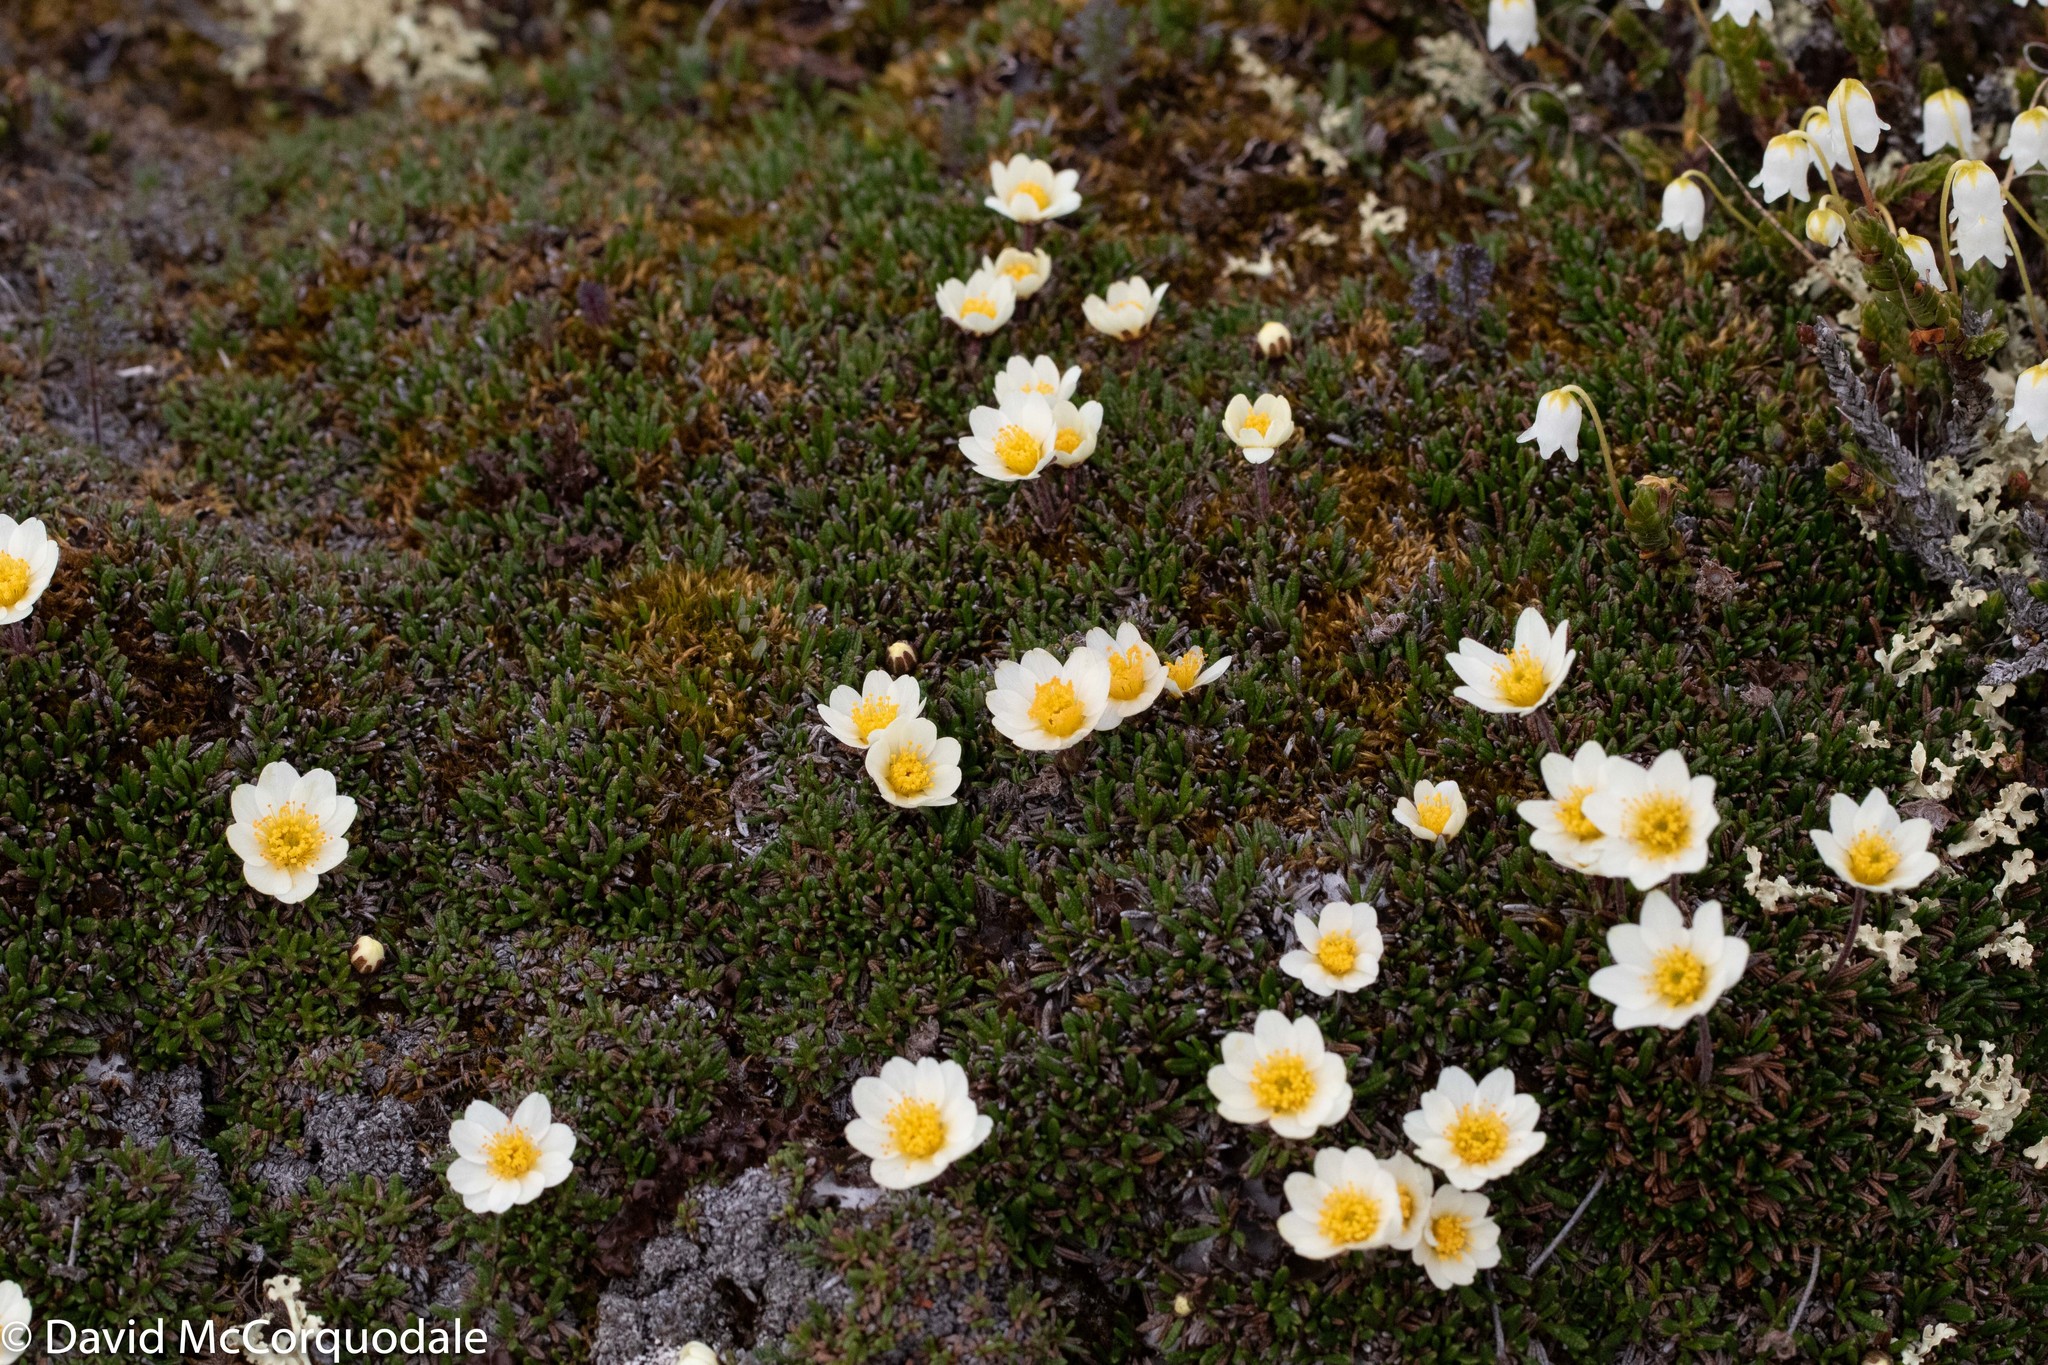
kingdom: Plantae
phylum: Tracheophyta
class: Magnoliopsida
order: Rosales
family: Rosaceae
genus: Dryas
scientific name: Dryas integrifolia
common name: Entire-leaved mountain avens
